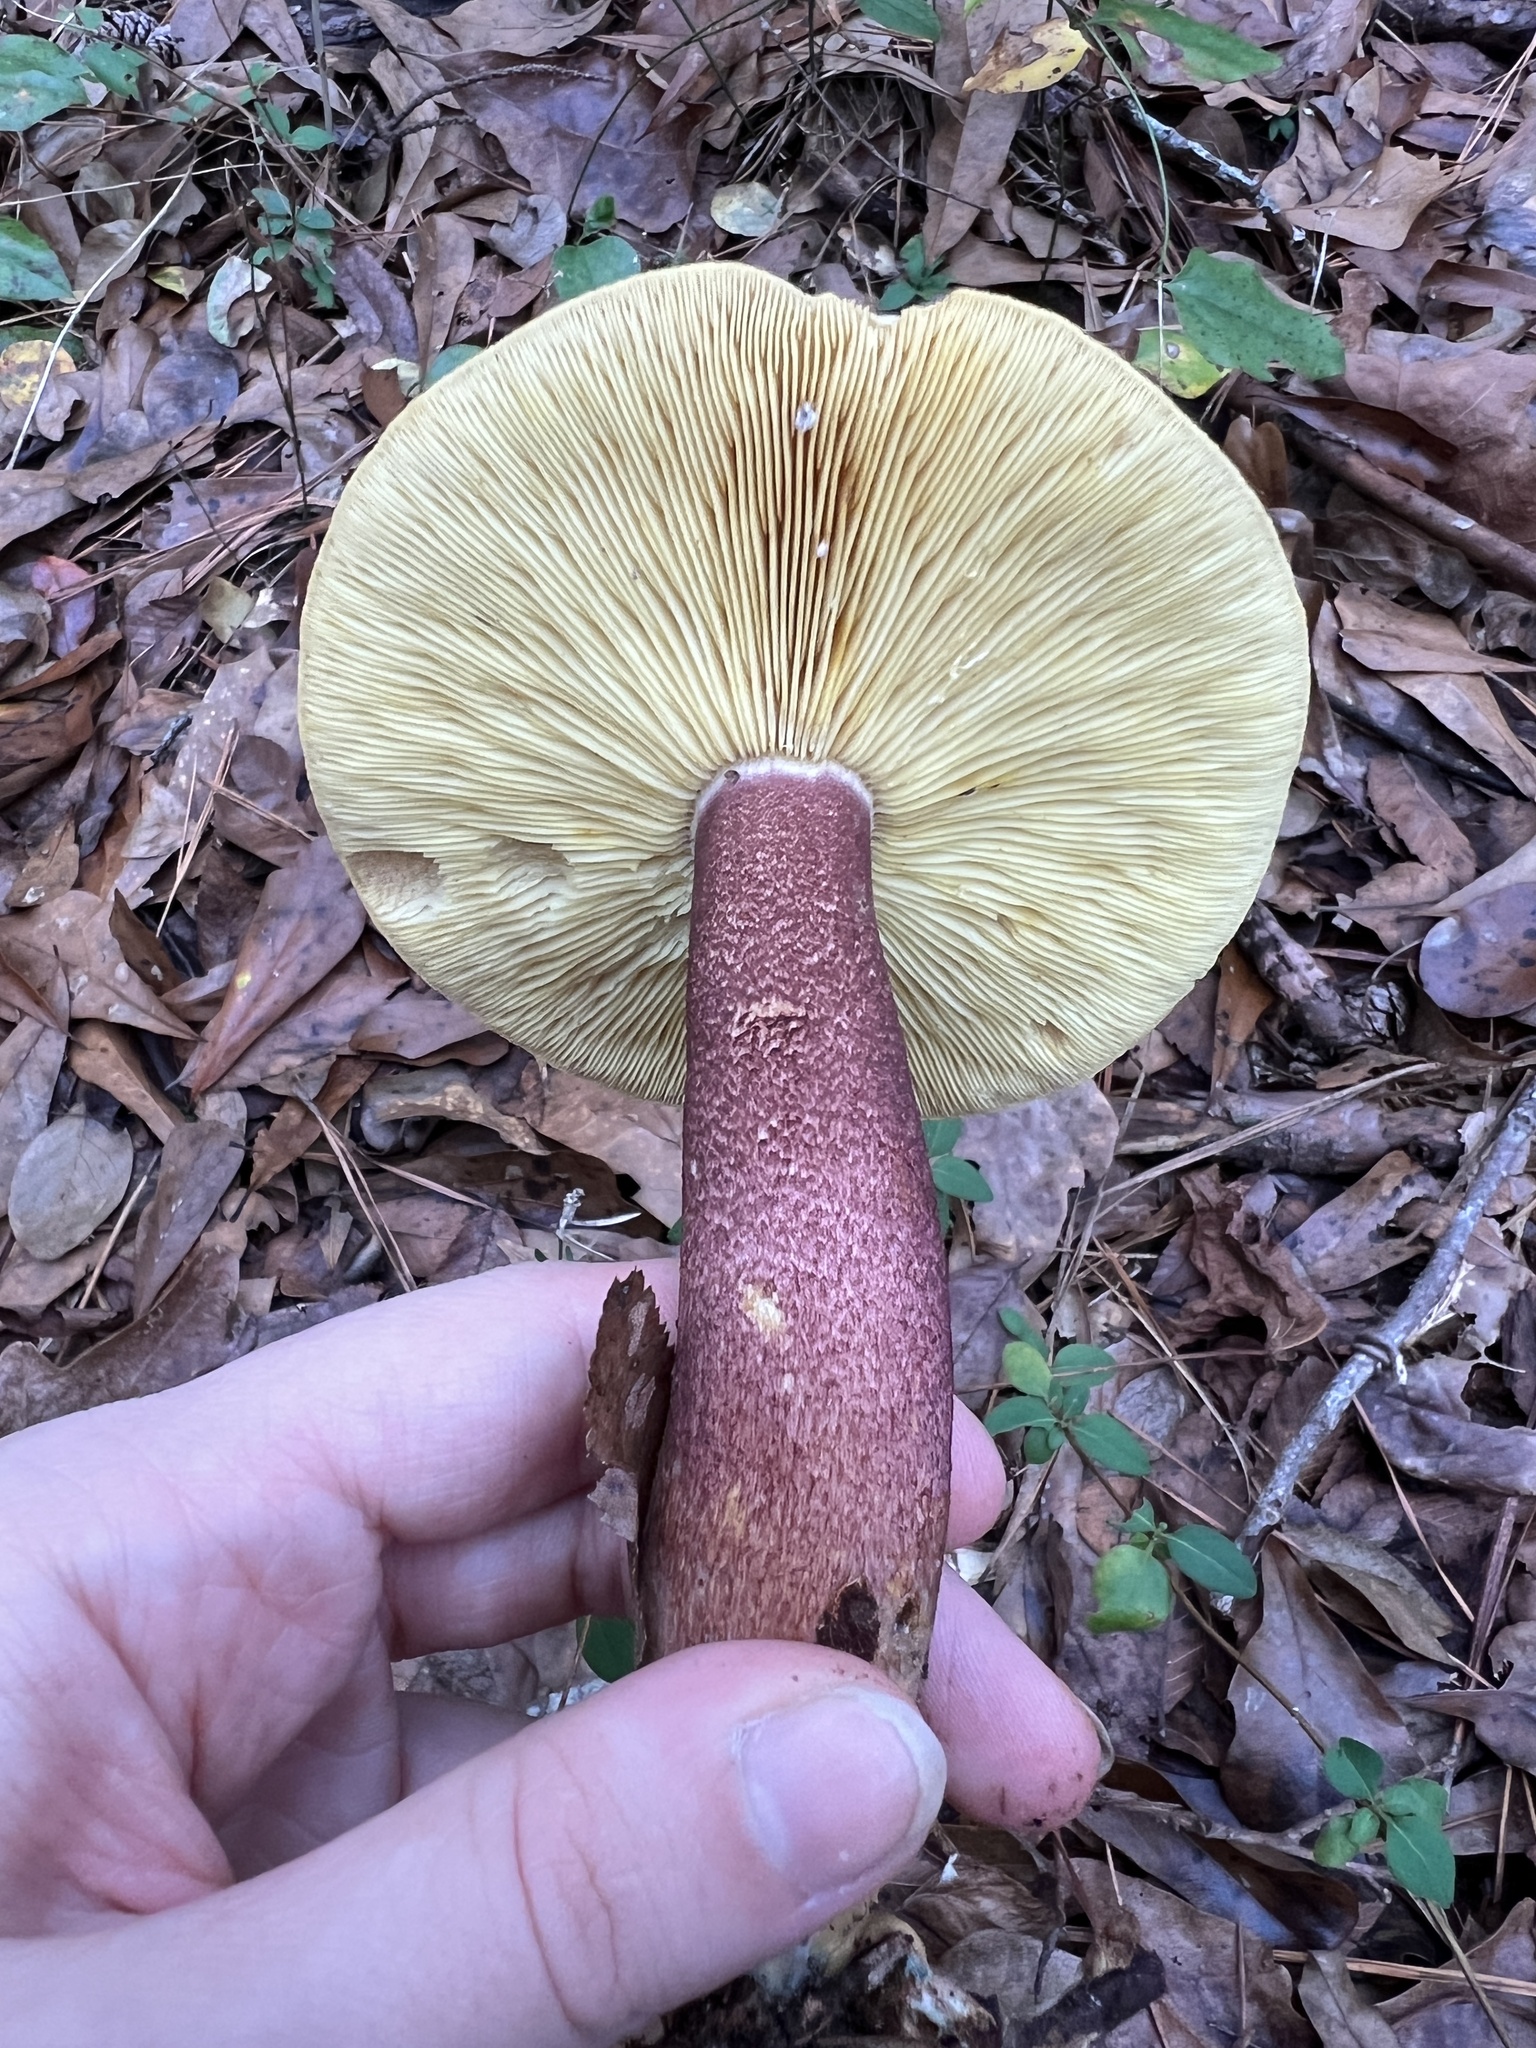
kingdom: Fungi
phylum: Basidiomycota
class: Agaricomycetes
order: Agaricales
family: Tricholomataceae
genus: Tricholomopsis
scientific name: Tricholomopsis rutilans
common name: Plums and custard
